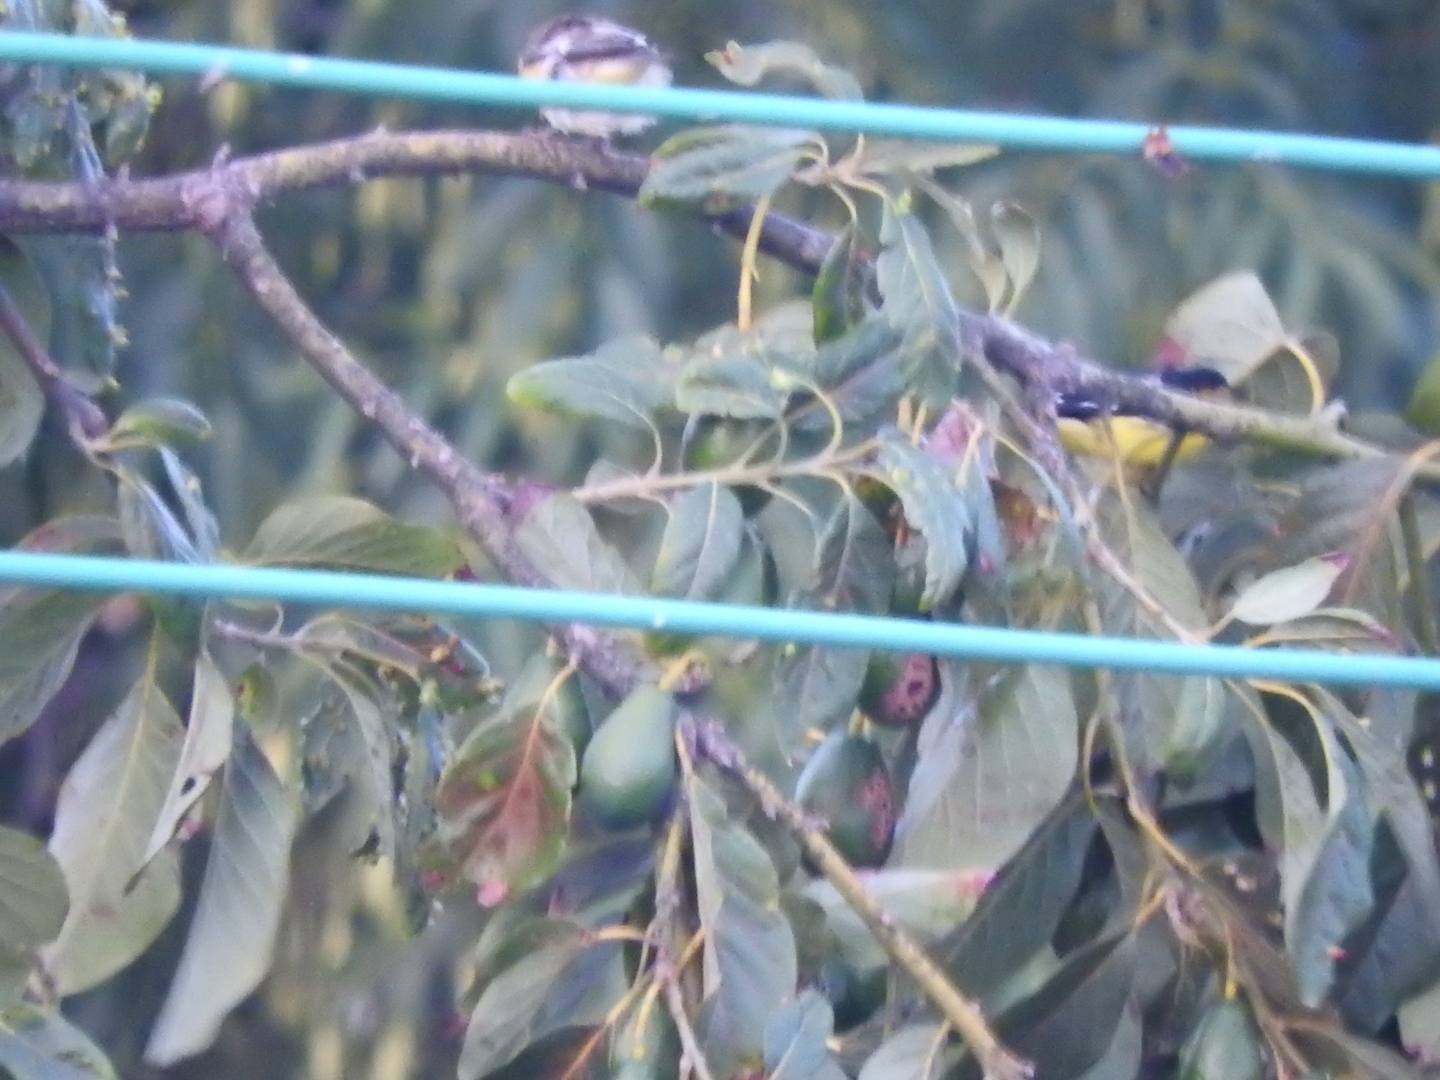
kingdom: Animalia
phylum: Chordata
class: Aves
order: Passeriformes
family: Fringillidae
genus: Spinus
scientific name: Spinus psaltria
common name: Lesser goldfinch
